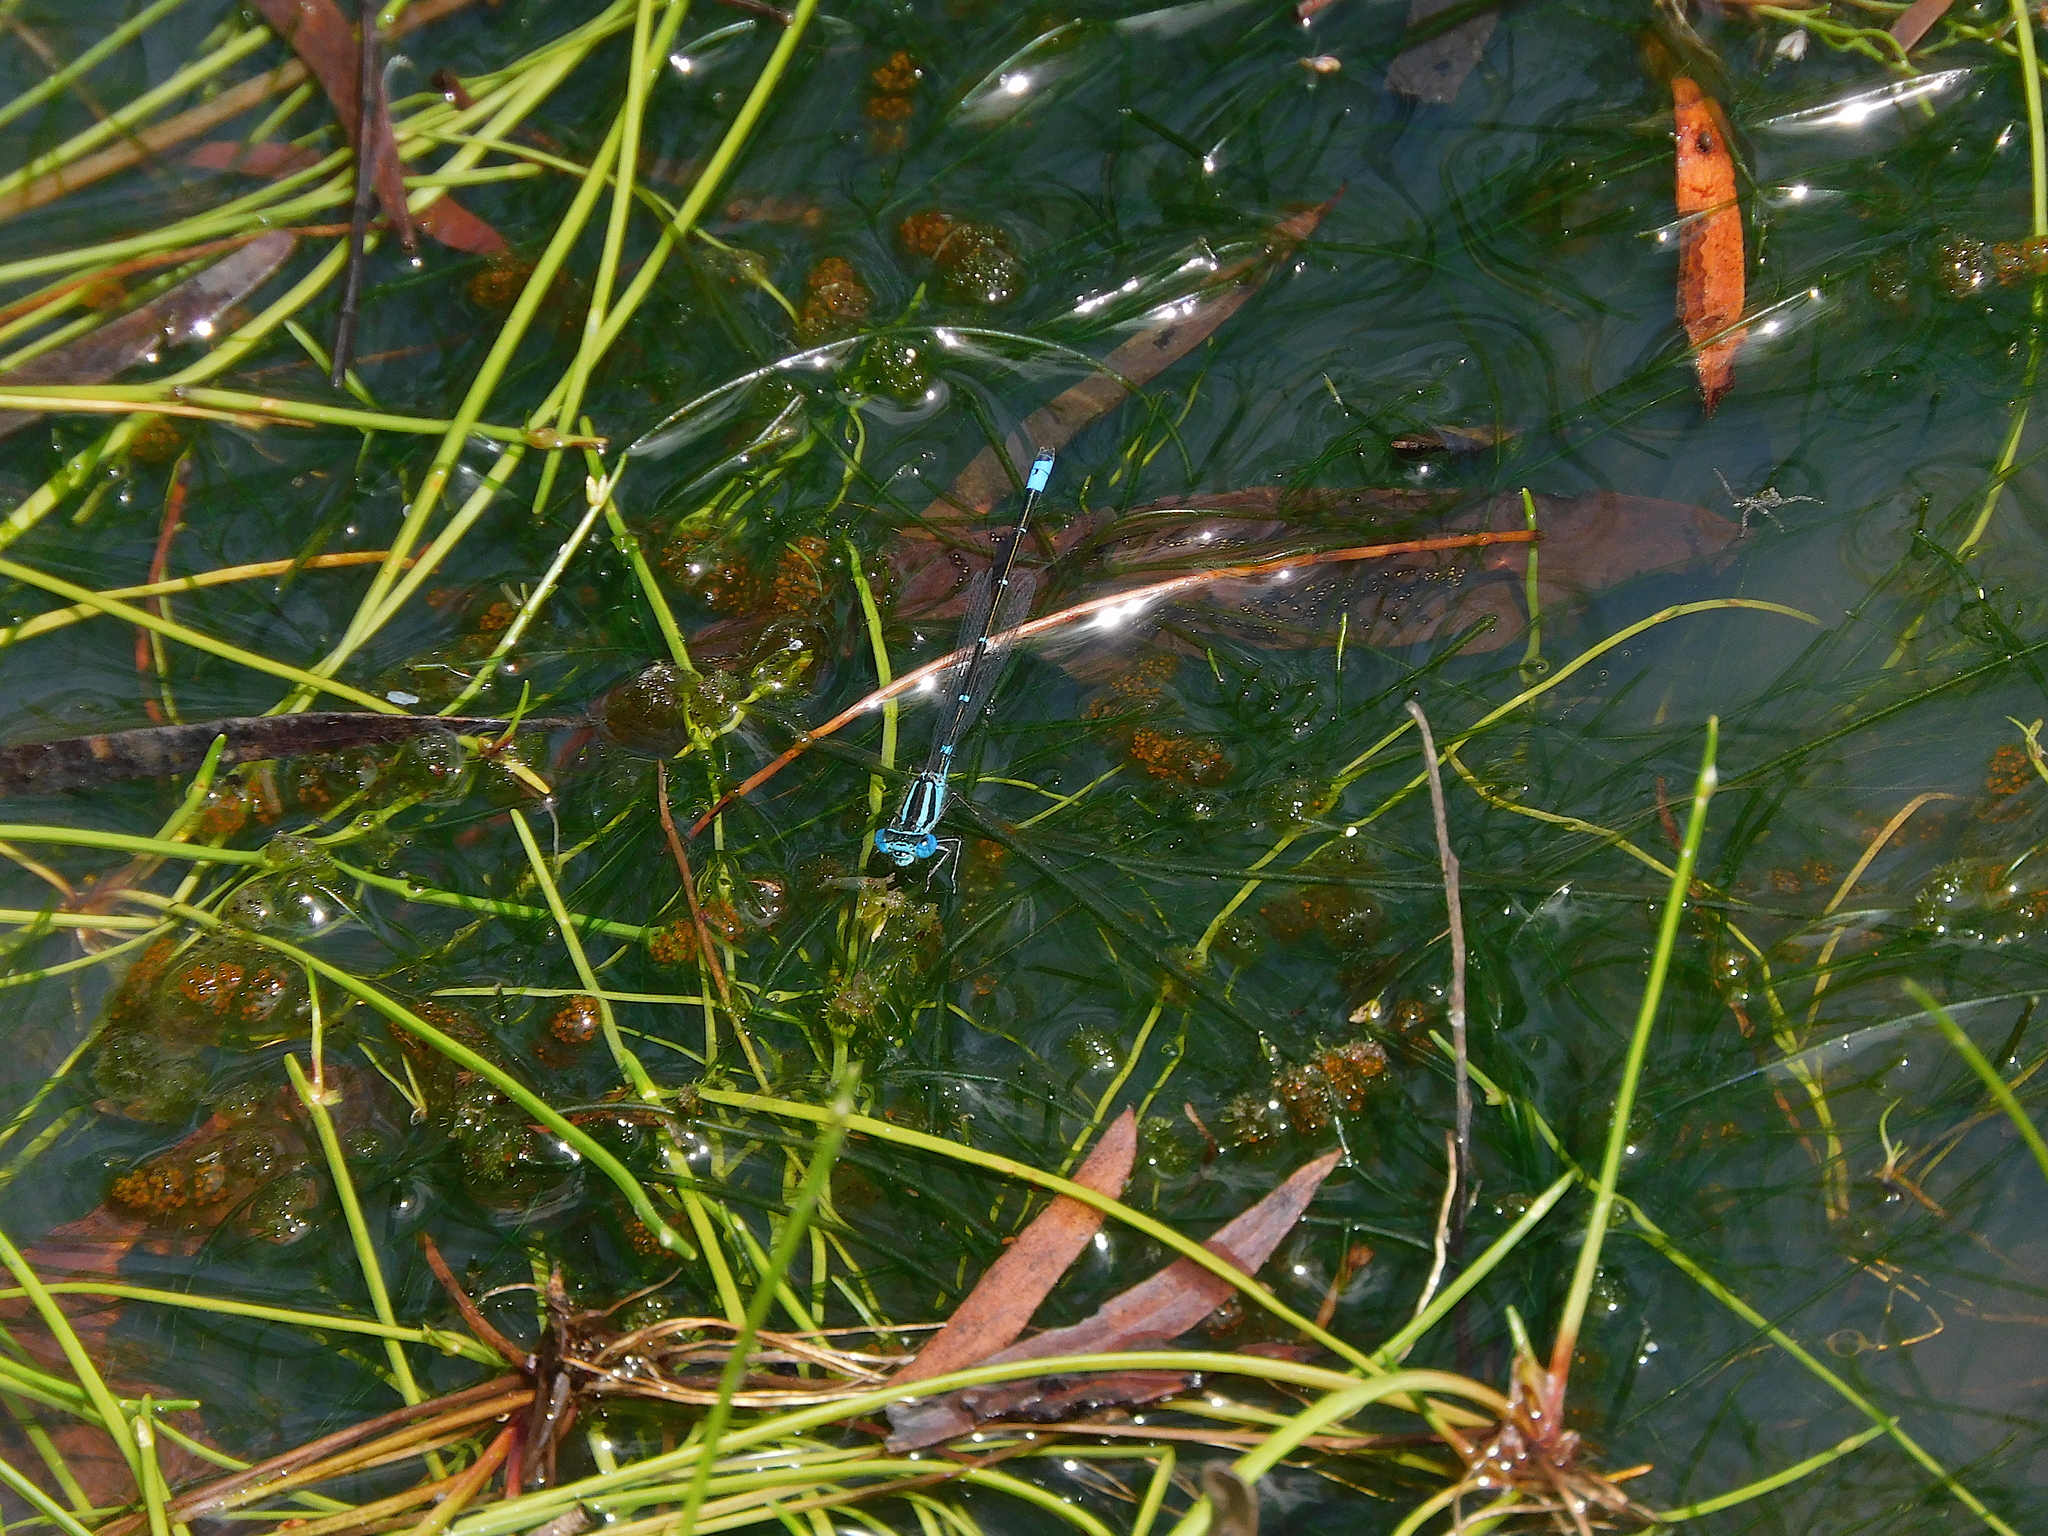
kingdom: Animalia
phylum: Arthropoda
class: Insecta
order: Odonata
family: Coenagrionidae
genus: Austroagrion
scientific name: Austroagrion watsoni
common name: Eastern billabongfly
